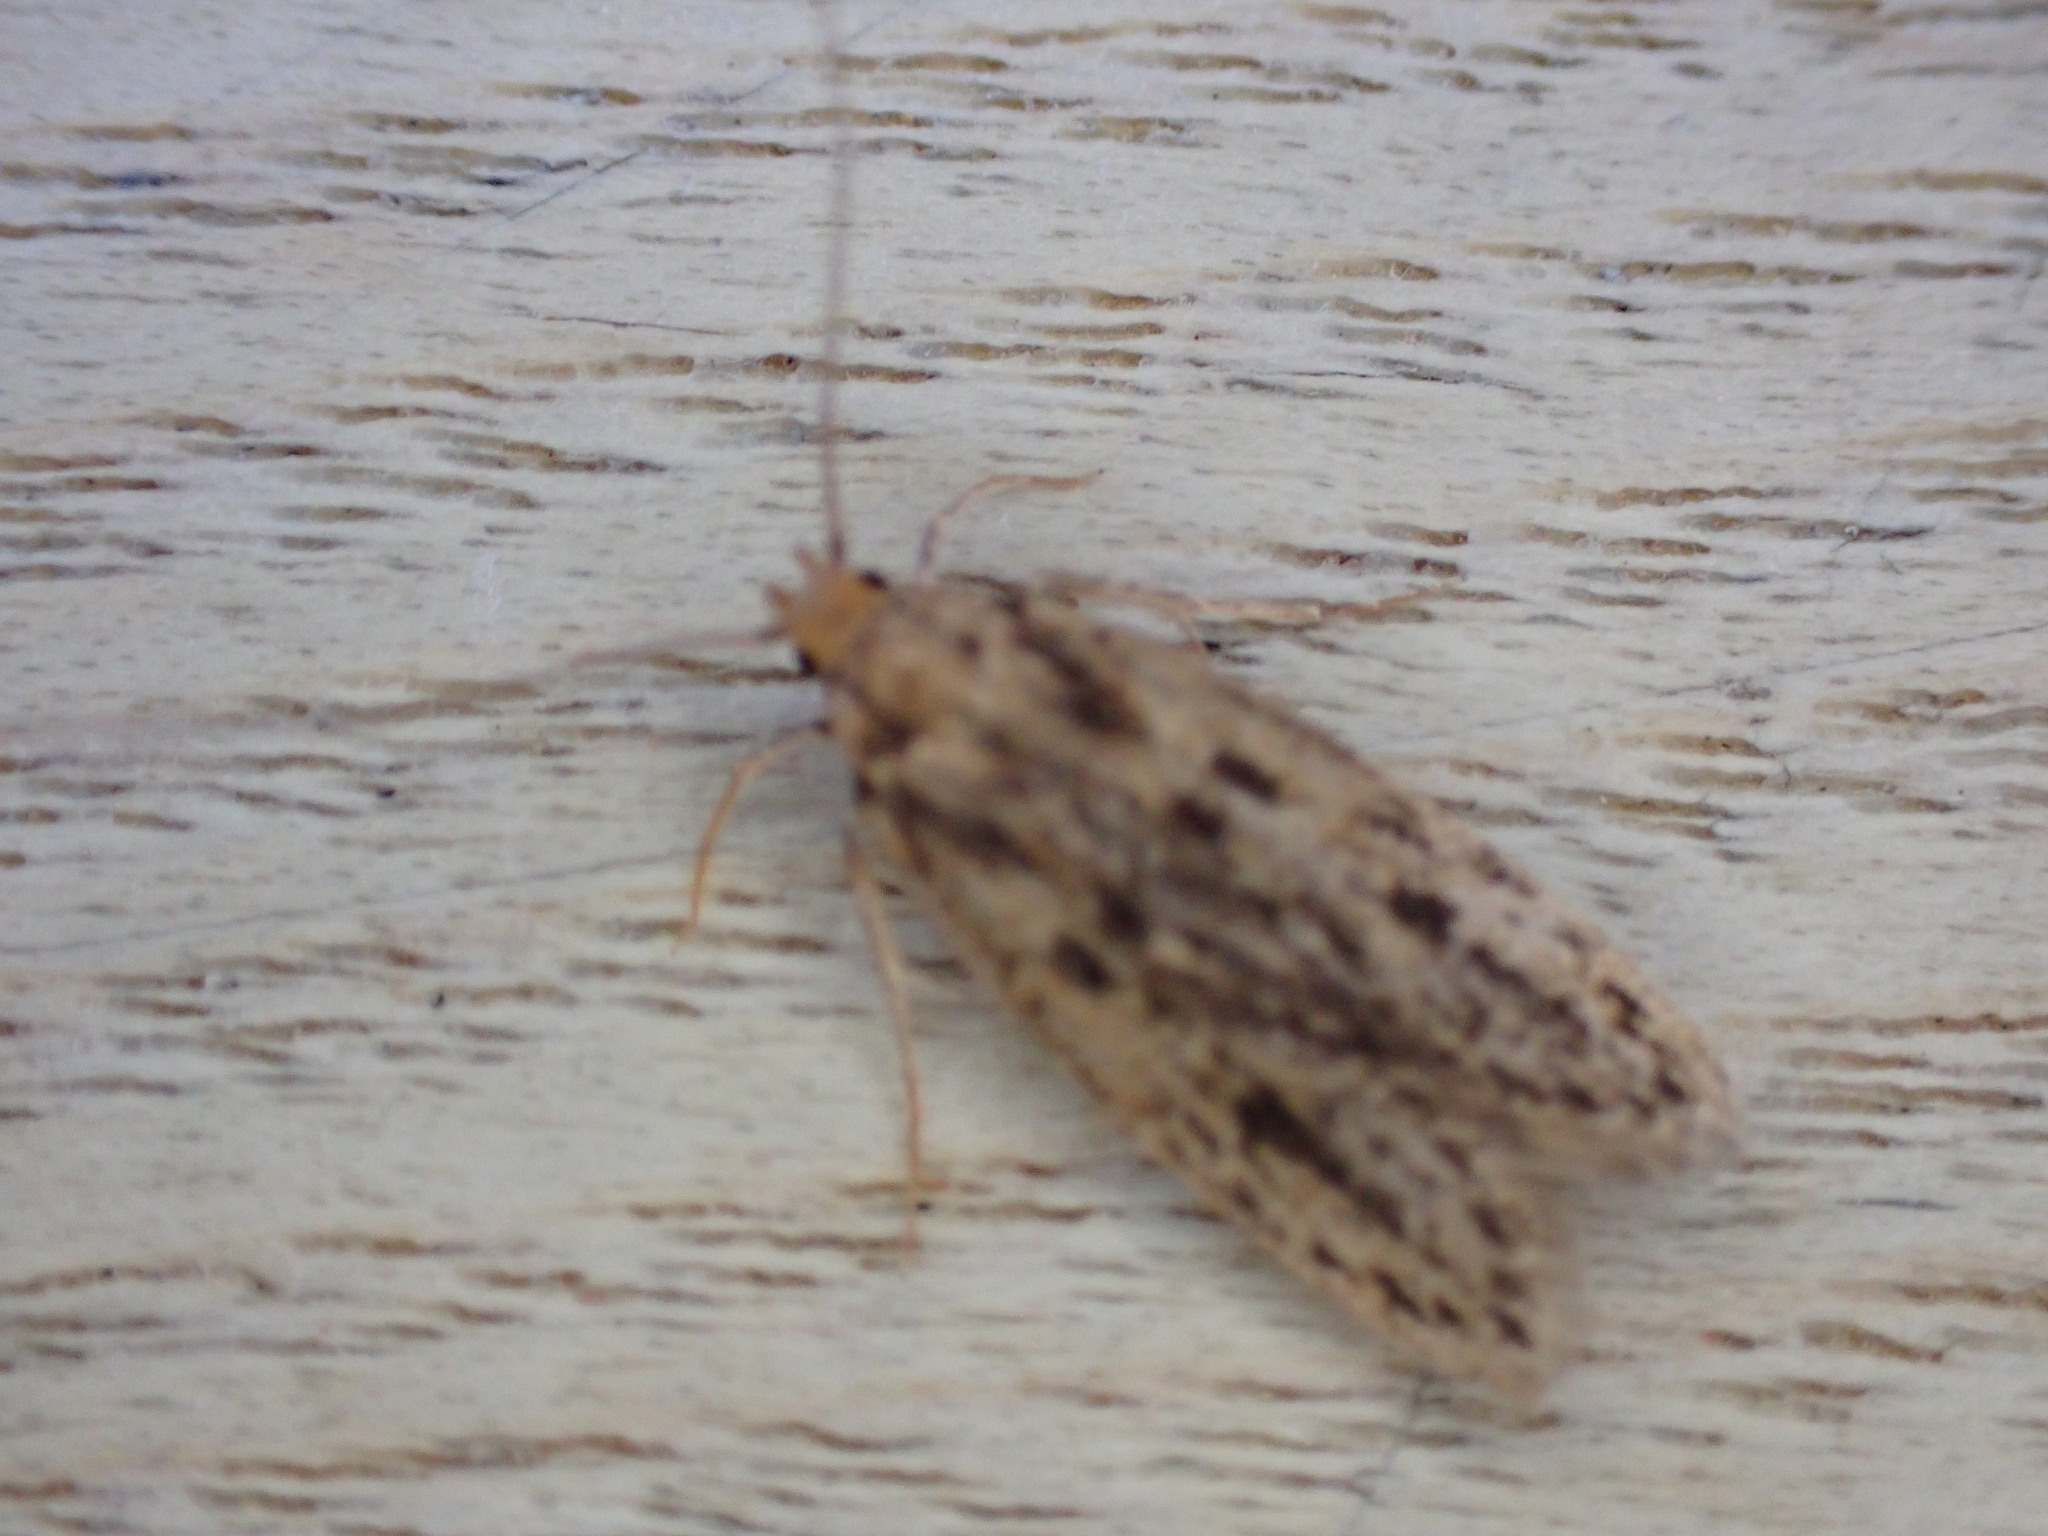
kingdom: Animalia
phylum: Arthropoda
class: Insecta
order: Lepidoptera
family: Oecophoridae
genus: Hofmannophila
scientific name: Hofmannophila pseudospretella
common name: Brown house moth
